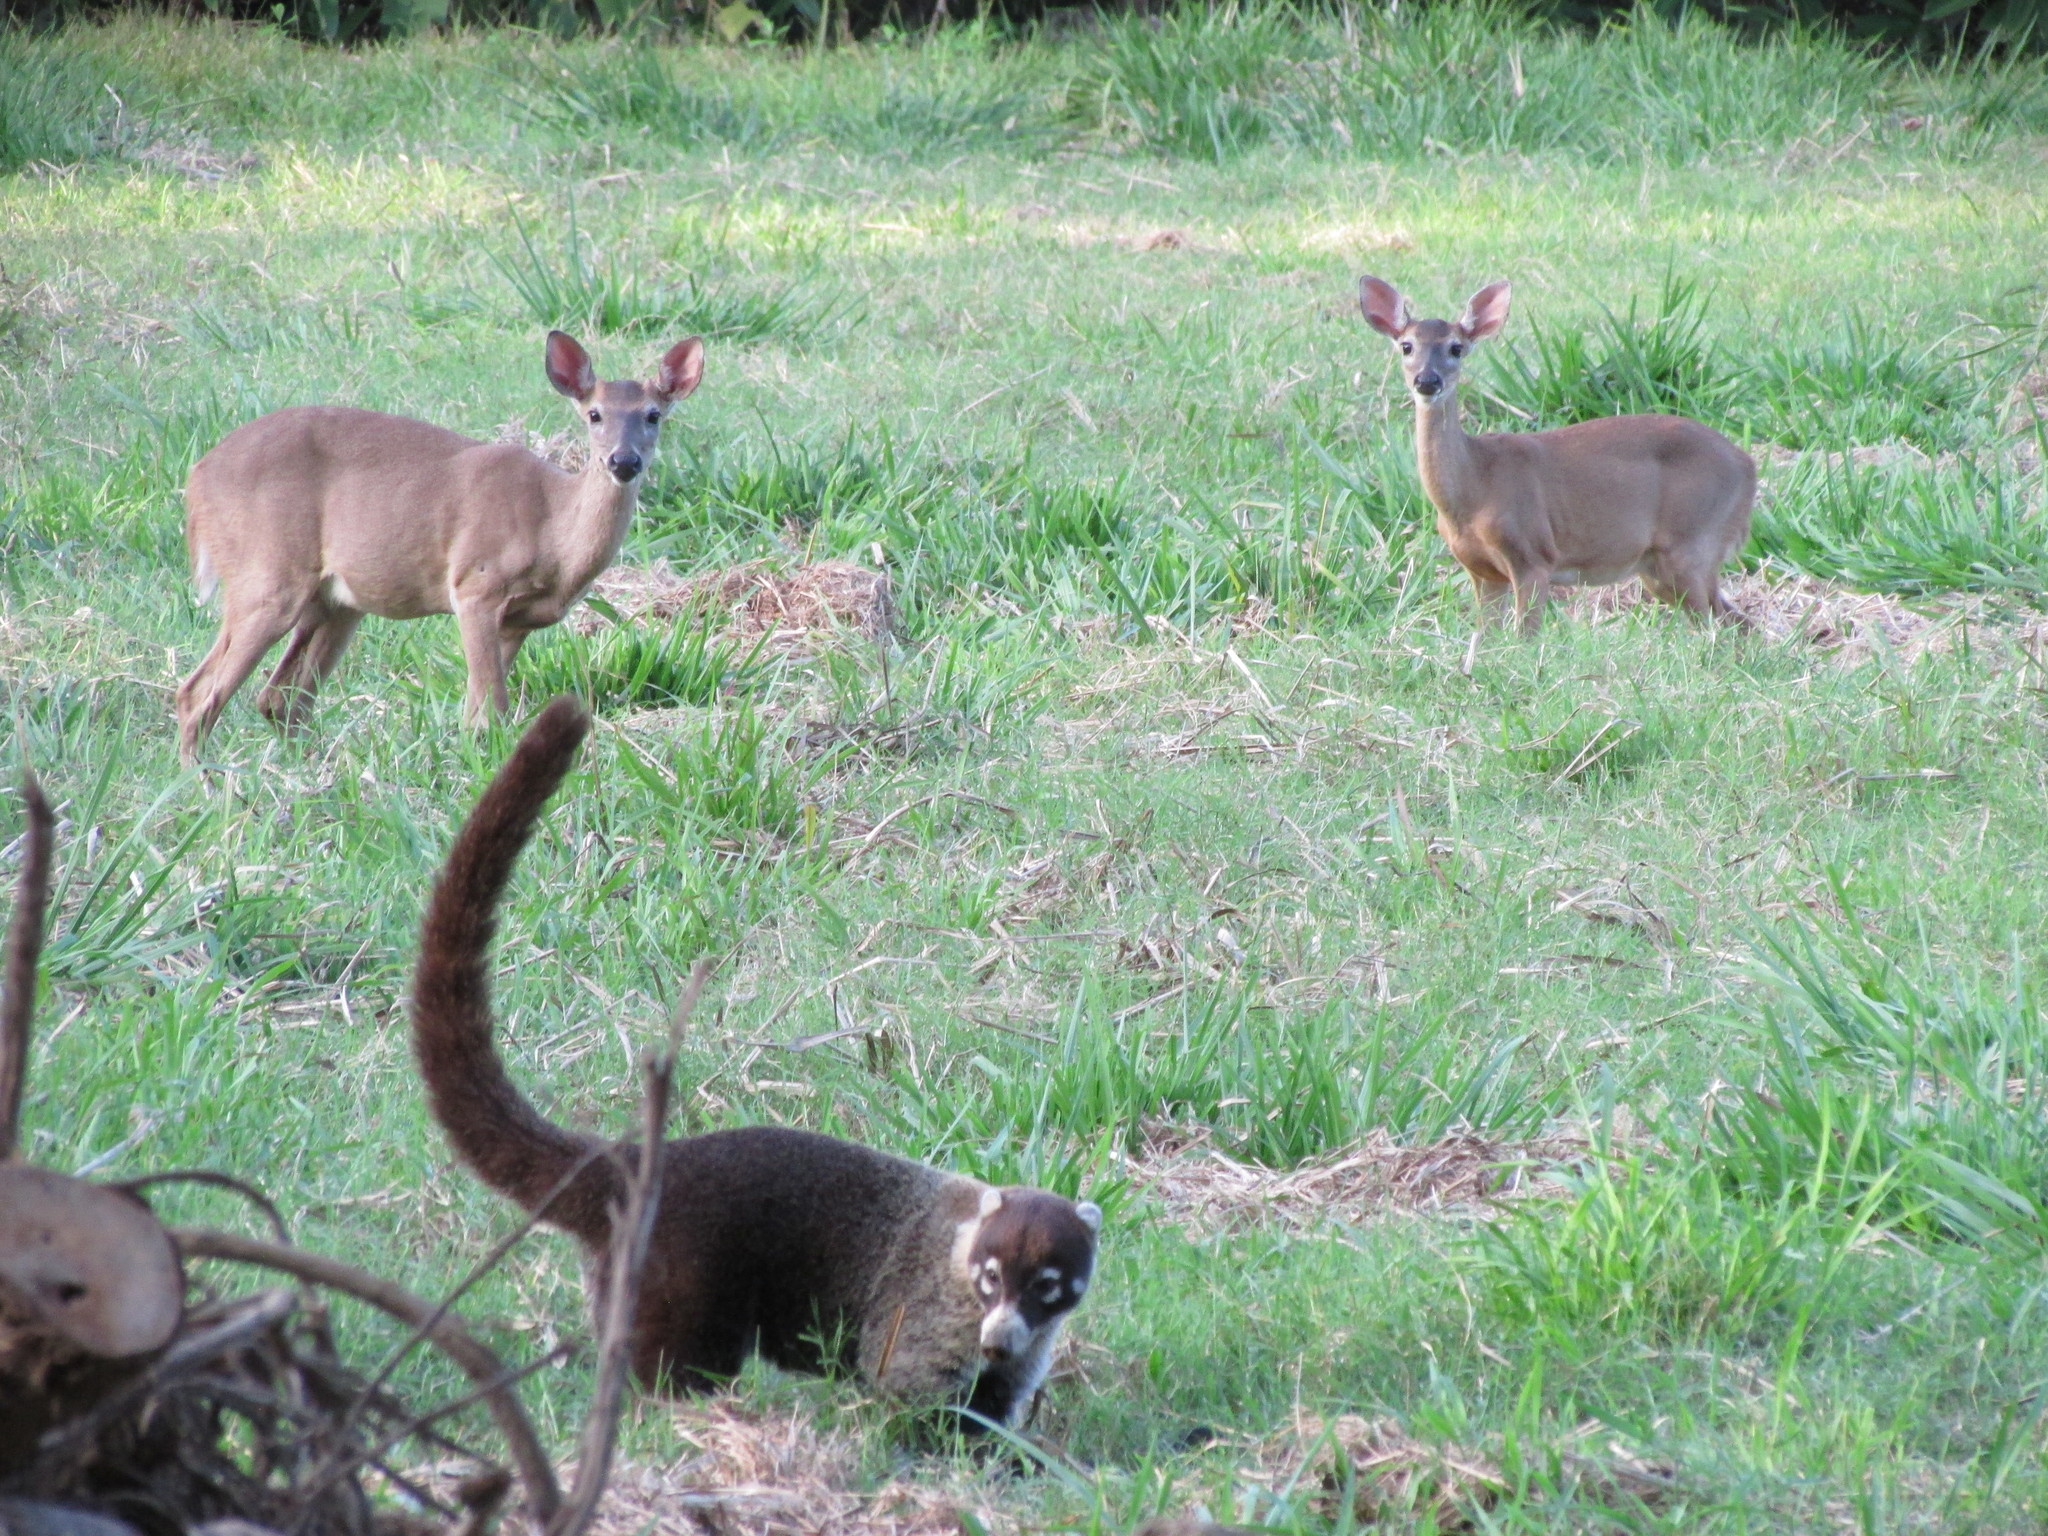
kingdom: Animalia
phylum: Chordata
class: Mammalia
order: Carnivora
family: Procyonidae
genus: Nasua
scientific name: Nasua narica
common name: White-nosed coati
